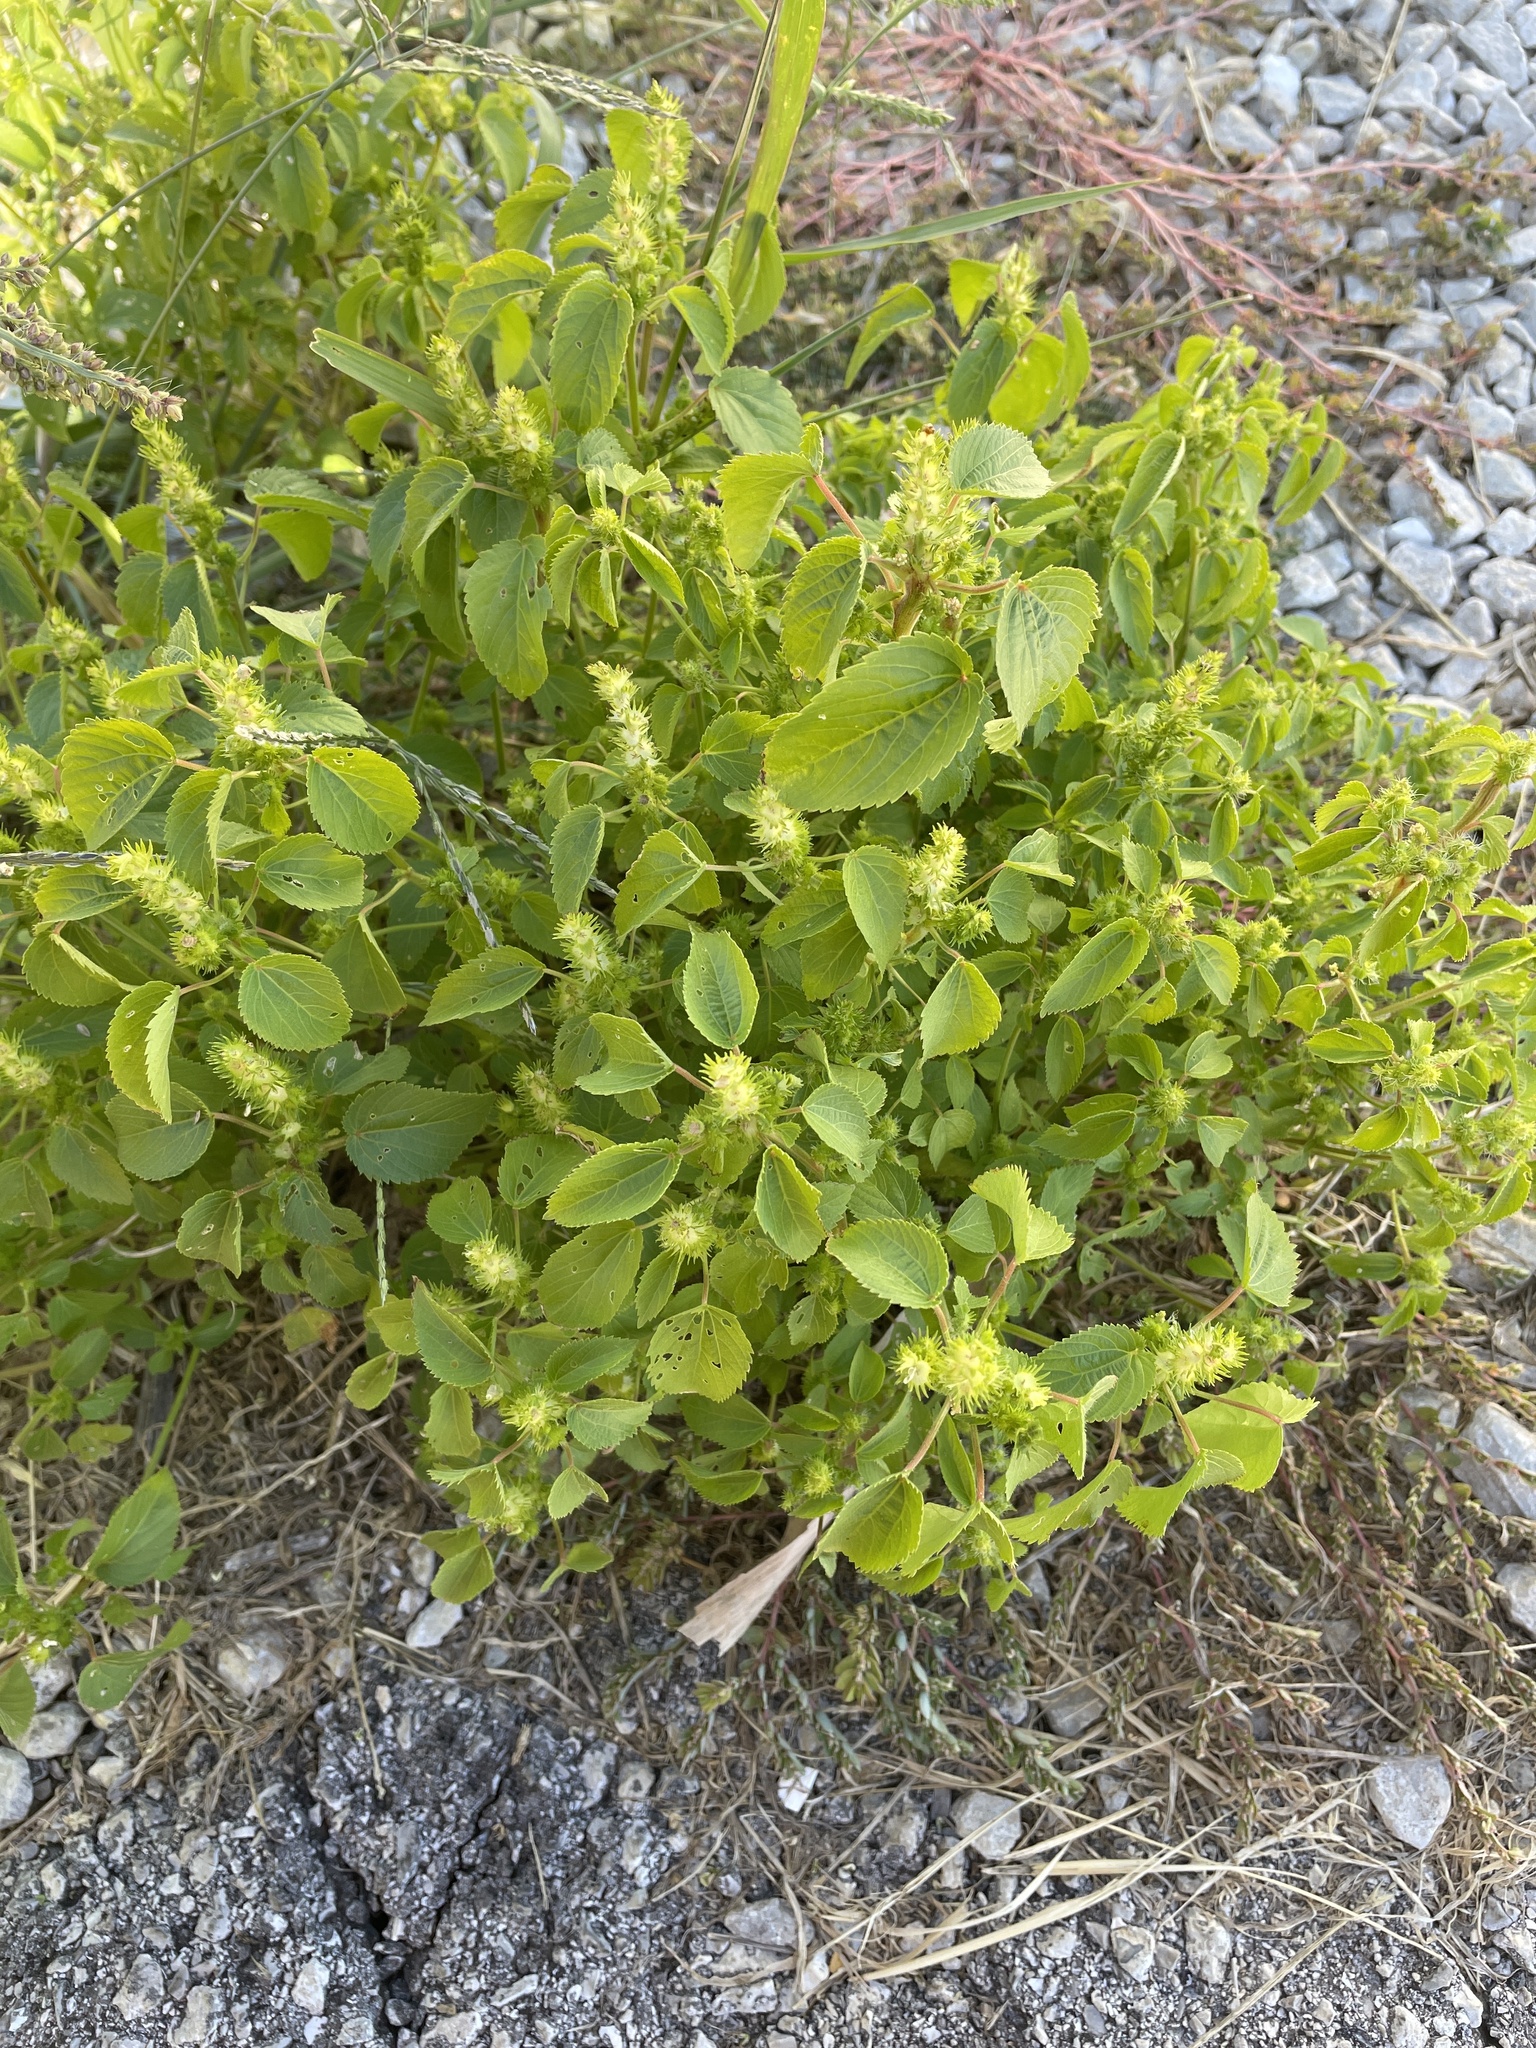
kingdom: Plantae
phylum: Tracheophyta
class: Magnoliopsida
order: Malpighiales
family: Euphorbiaceae
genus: Acalypha
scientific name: Acalypha ostryifolia
